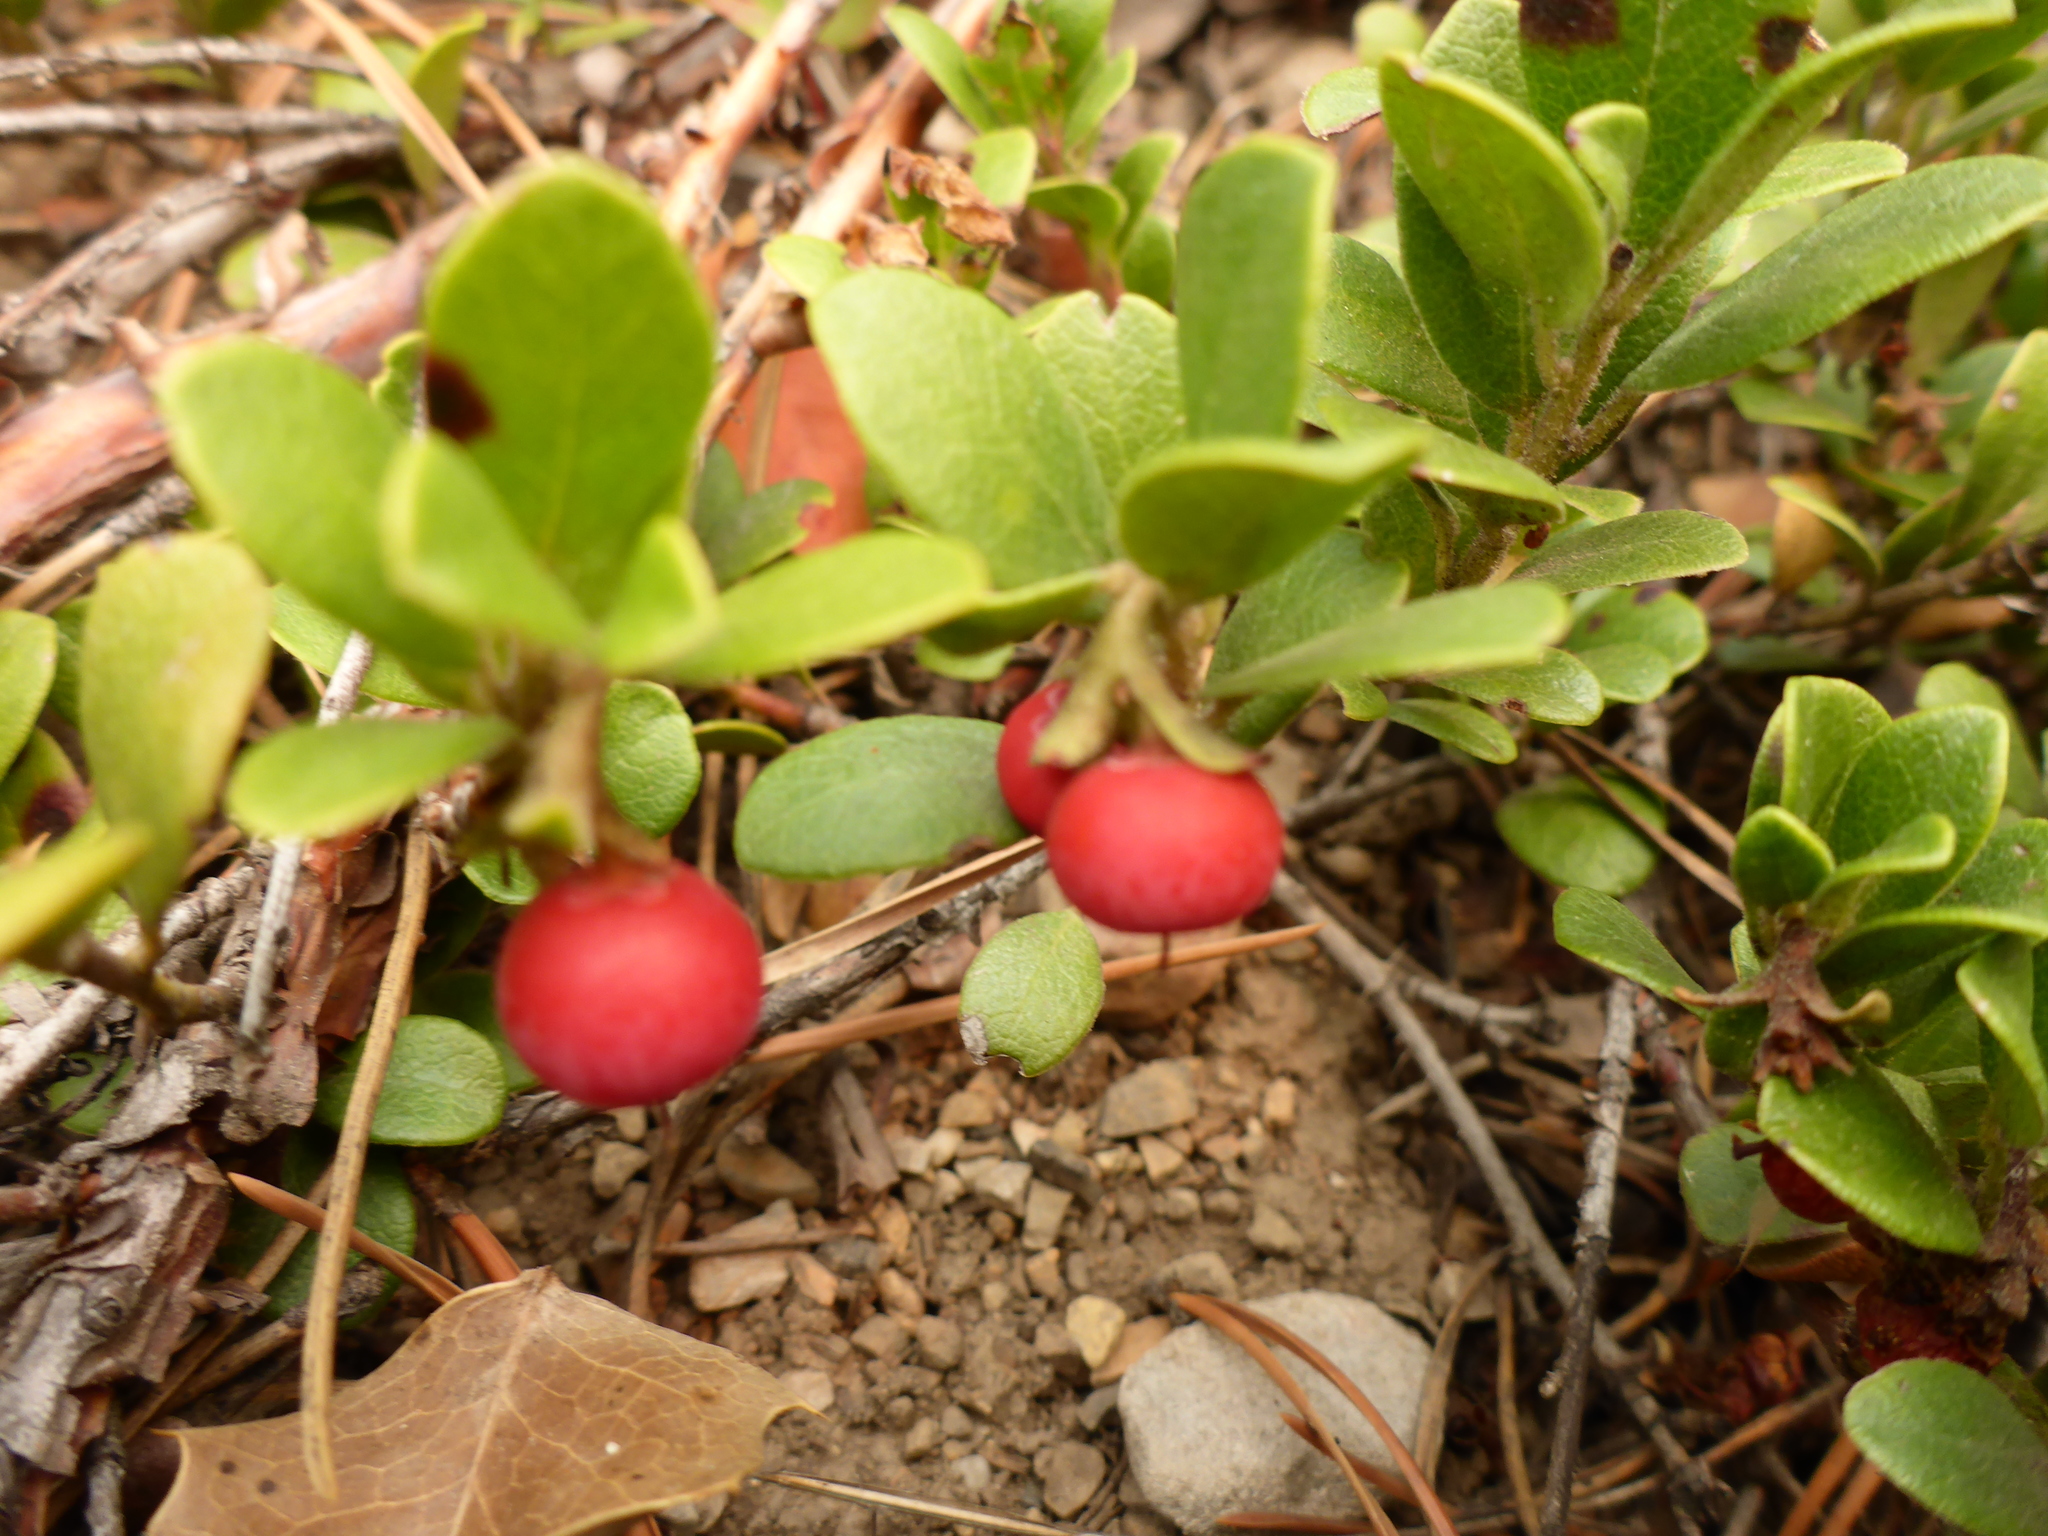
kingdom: Plantae
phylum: Tracheophyta
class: Magnoliopsida
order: Ericales
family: Ericaceae
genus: Arctostaphylos
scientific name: Arctostaphylos uva-ursi
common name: Bearberry
